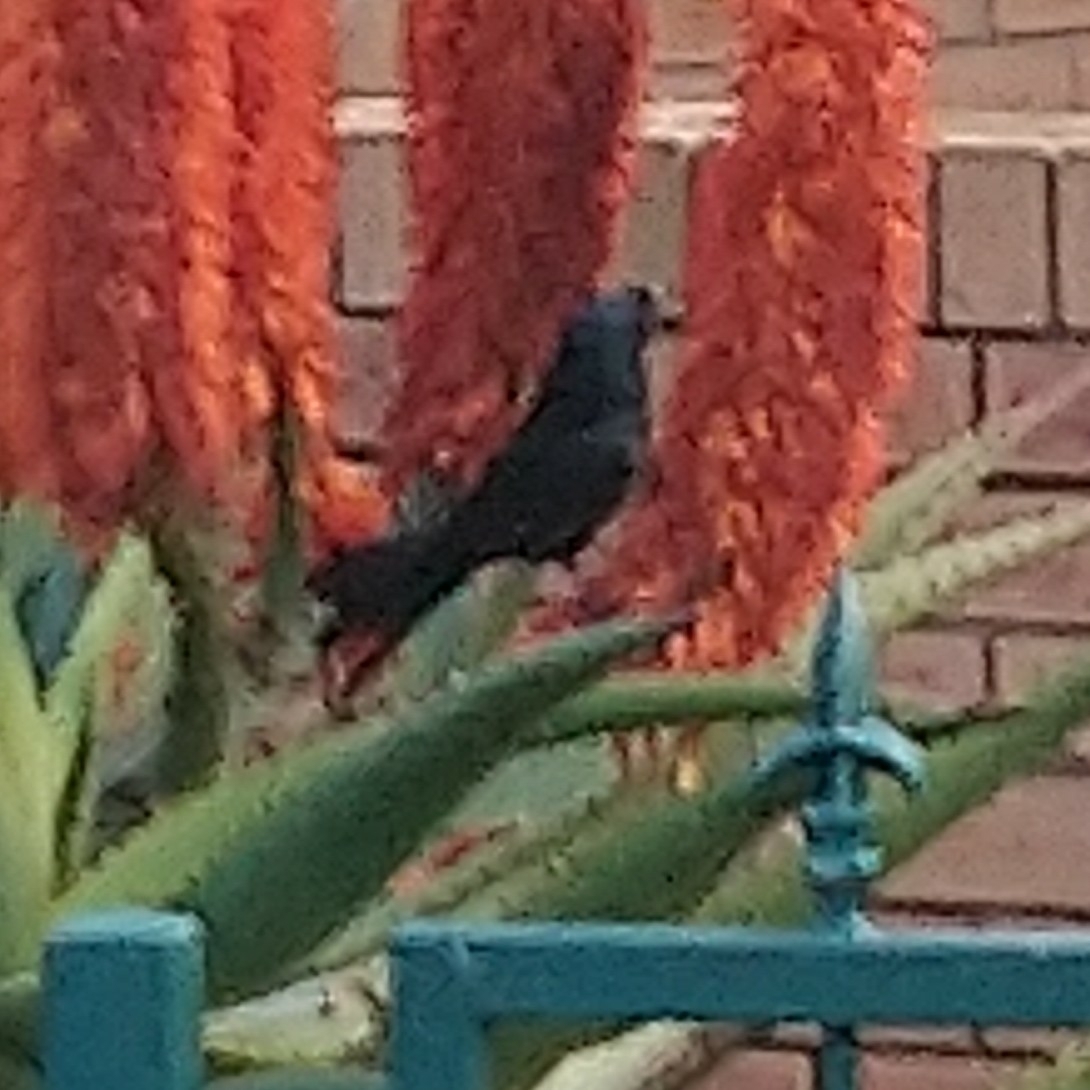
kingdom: Animalia
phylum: Chordata
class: Aves
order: Passeriformes
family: Dicruridae
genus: Dicrurus
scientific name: Dicrurus adsimilis
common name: Fork-tailed drongo
